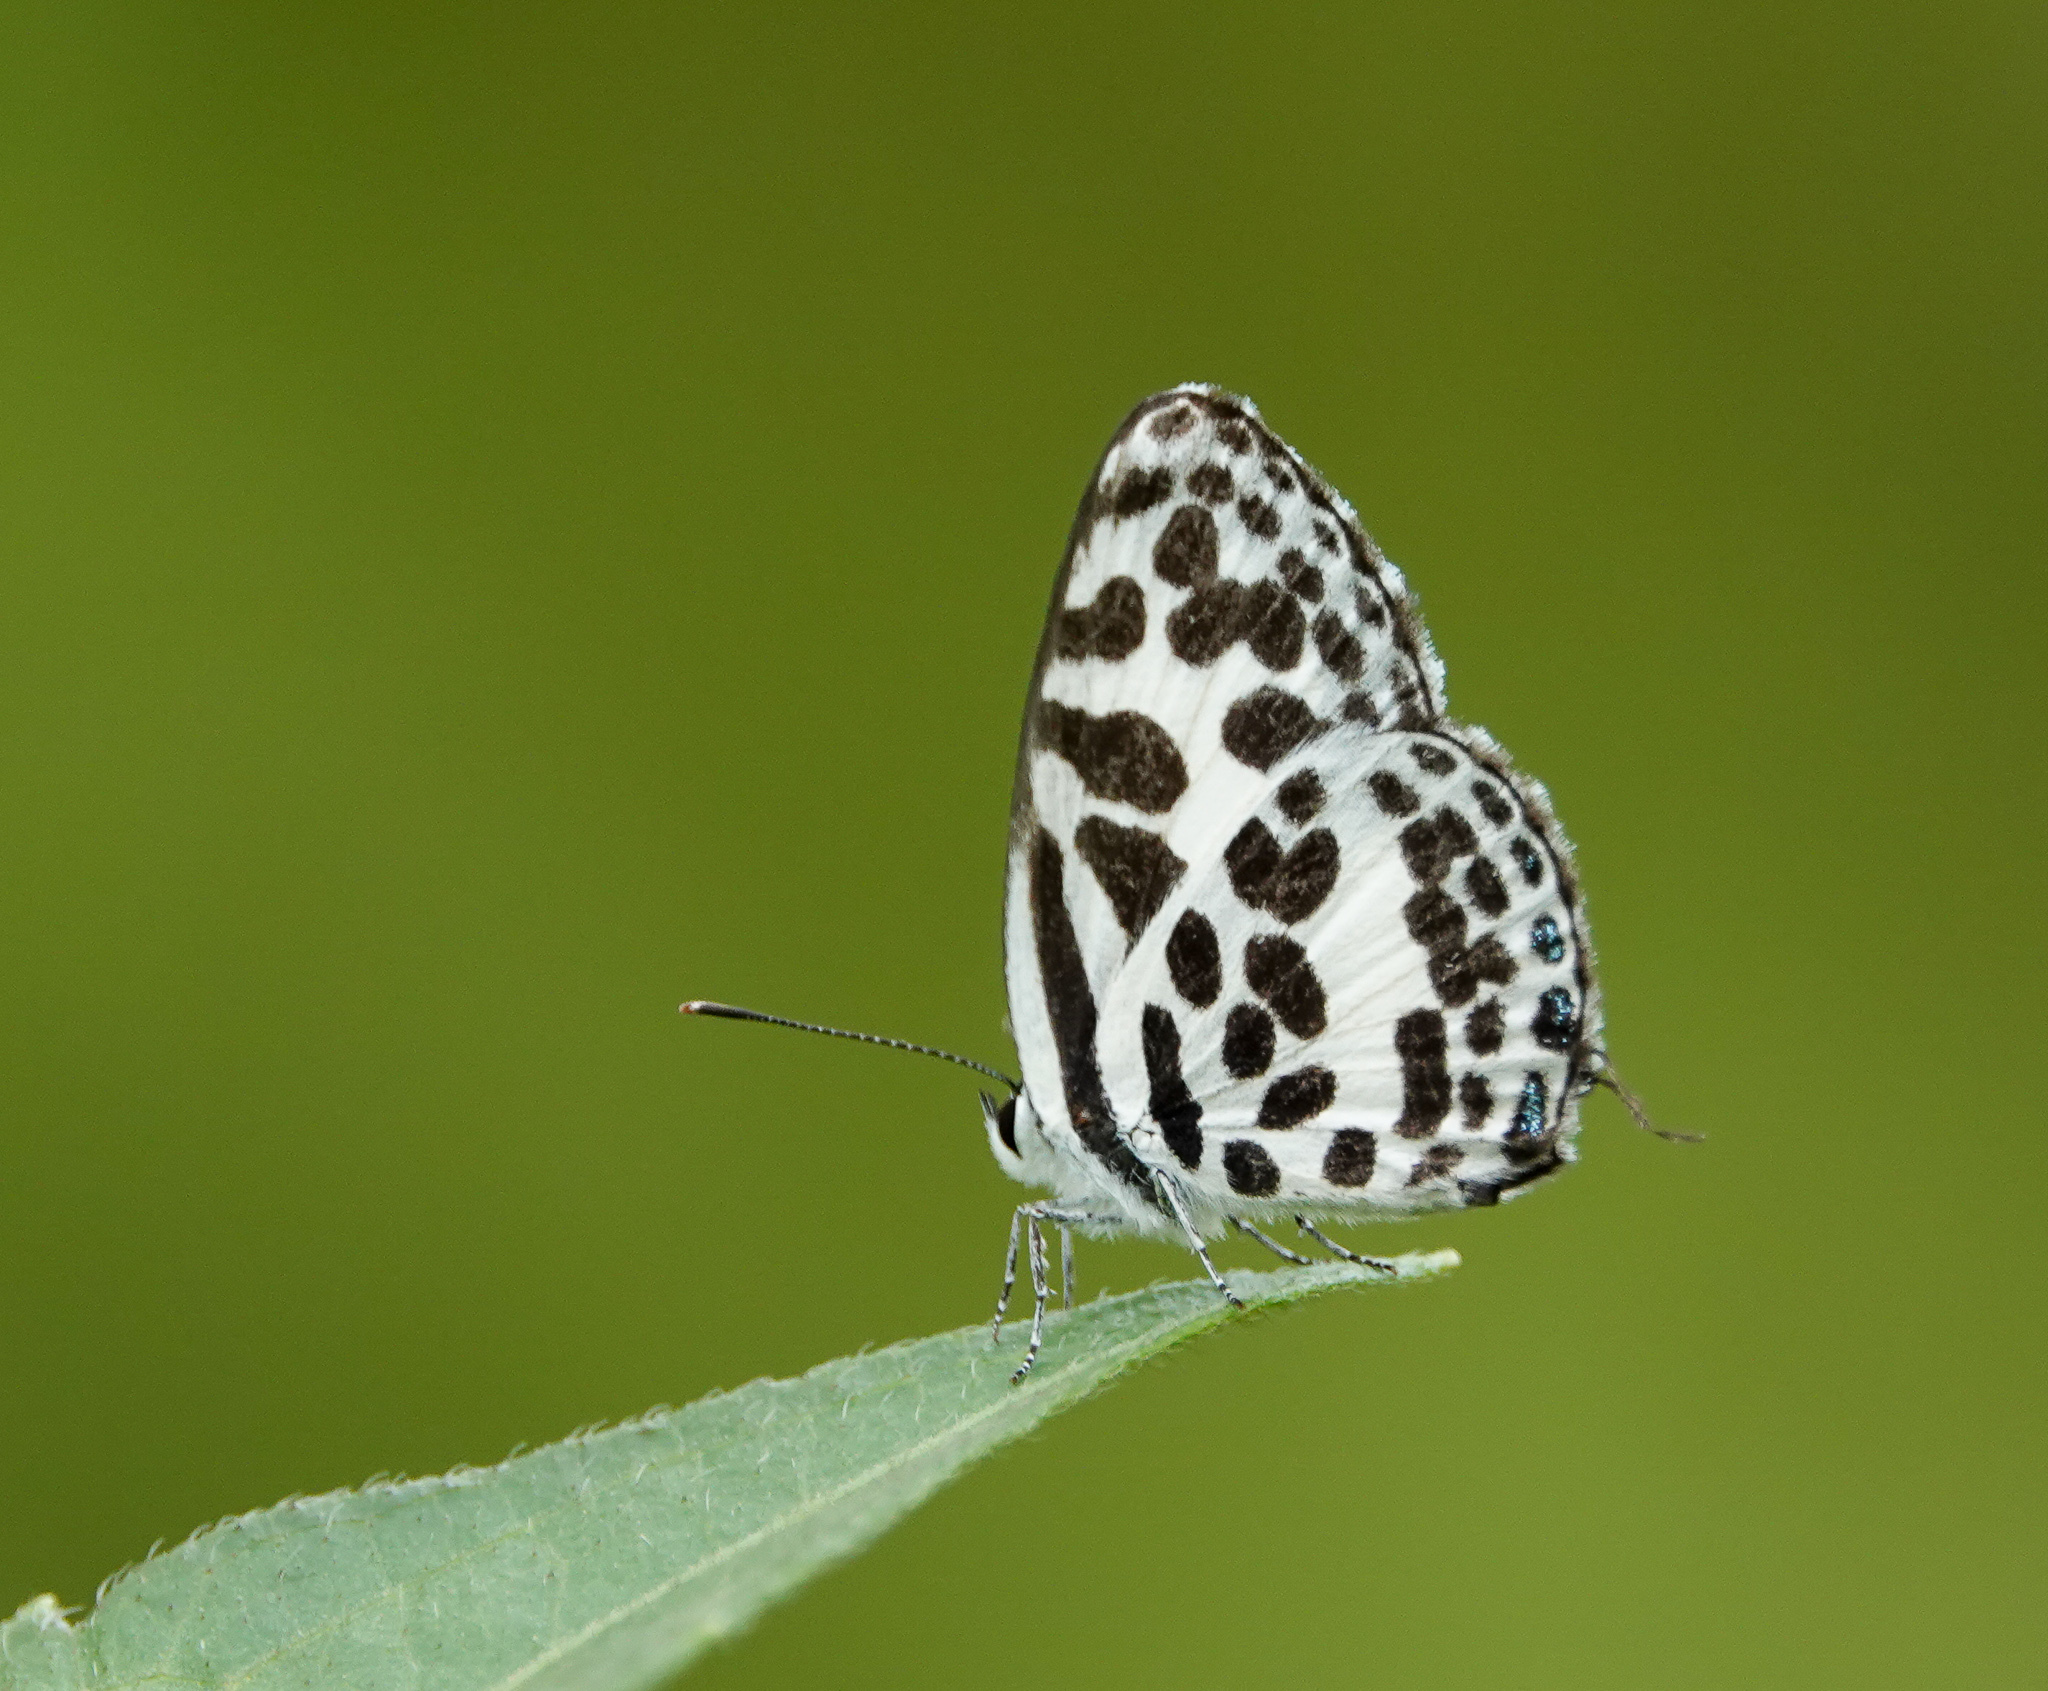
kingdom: Animalia
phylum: Arthropoda
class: Insecta
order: Lepidoptera
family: Lycaenidae
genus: Castalius
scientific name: Castalius rosimon
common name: Common pierrot
